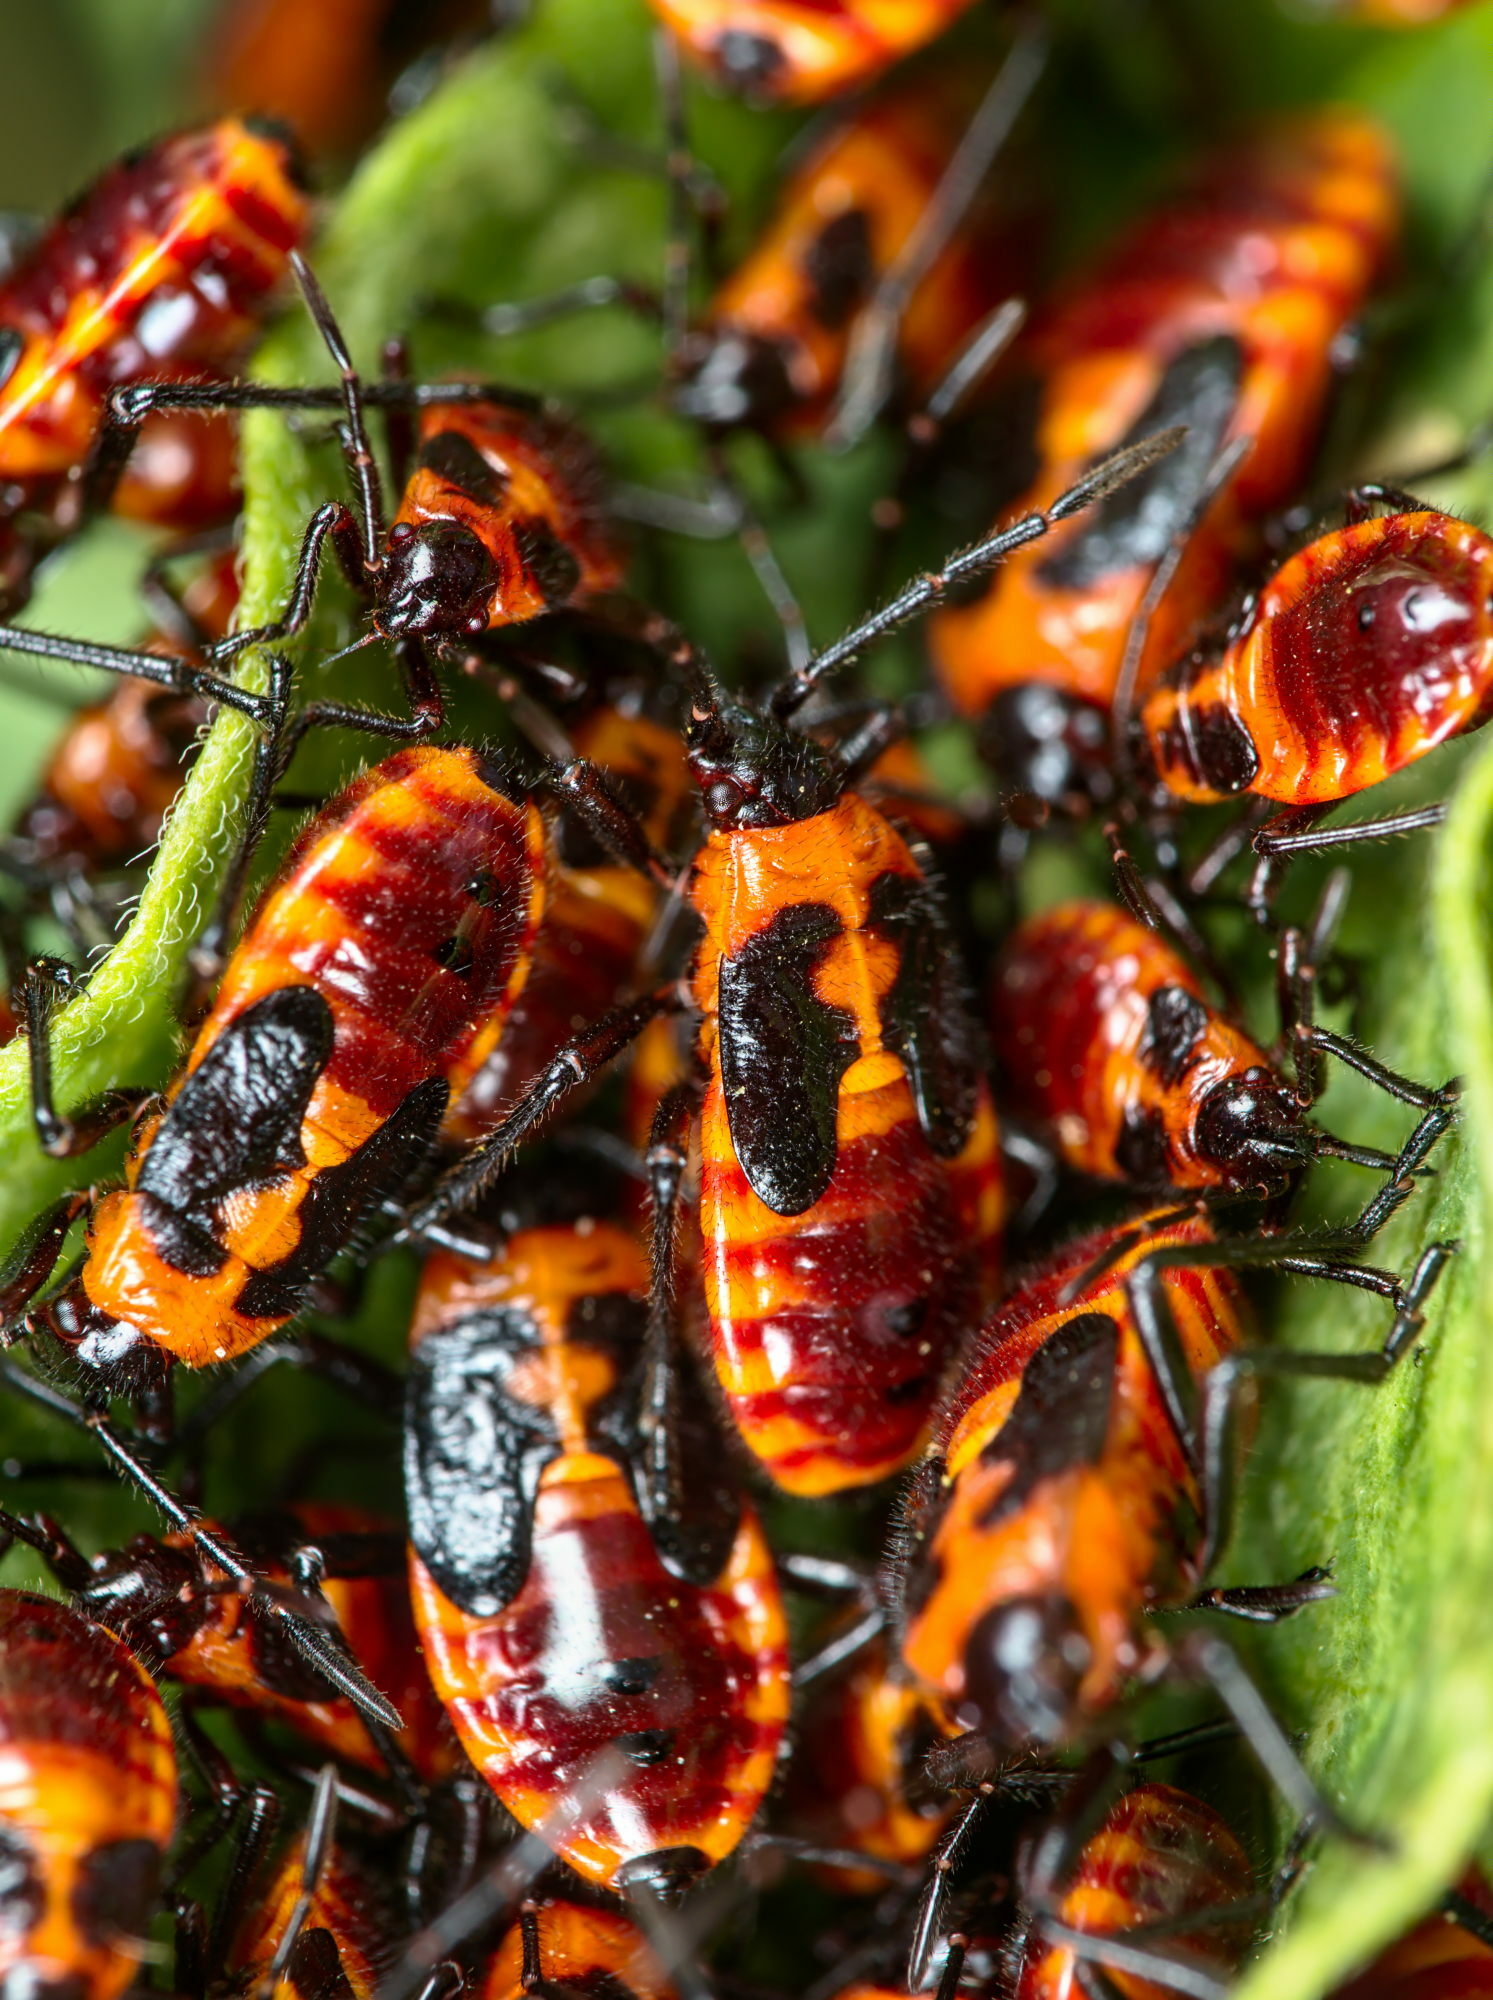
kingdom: Animalia
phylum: Arthropoda
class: Insecta
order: Hemiptera
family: Lygaeidae
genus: Tropidothorax
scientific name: Tropidothorax leucopterus
